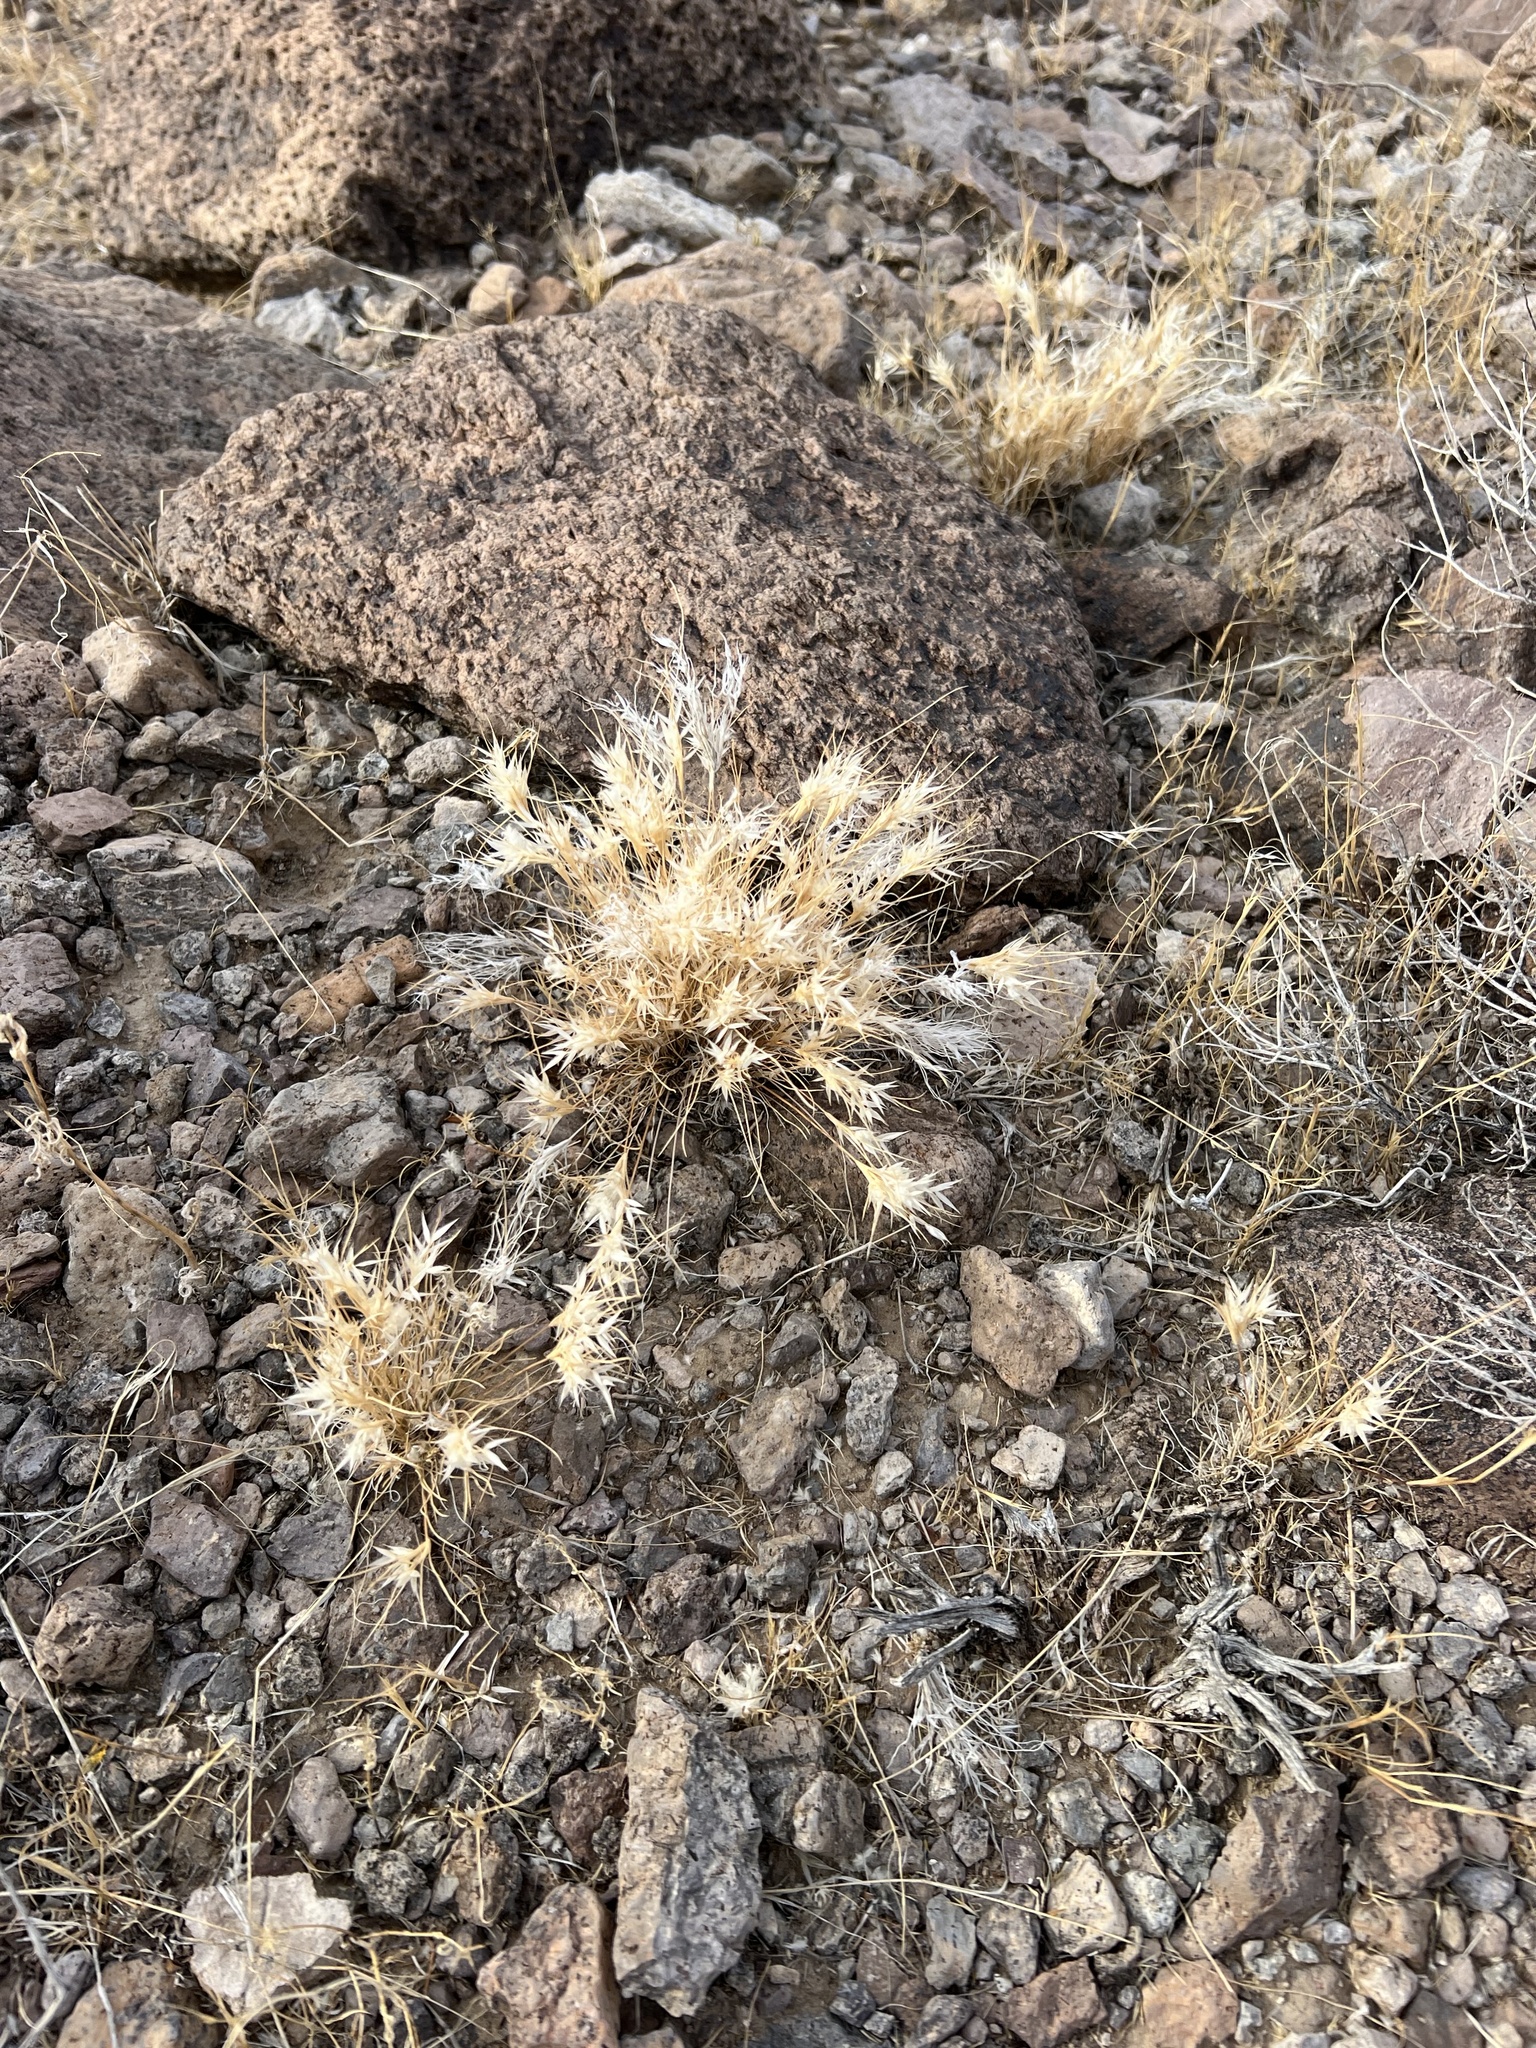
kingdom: Plantae
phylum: Tracheophyta
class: Liliopsida
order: Poales
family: Poaceae
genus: Dasyochloa
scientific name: Dasyochloa pulchella
